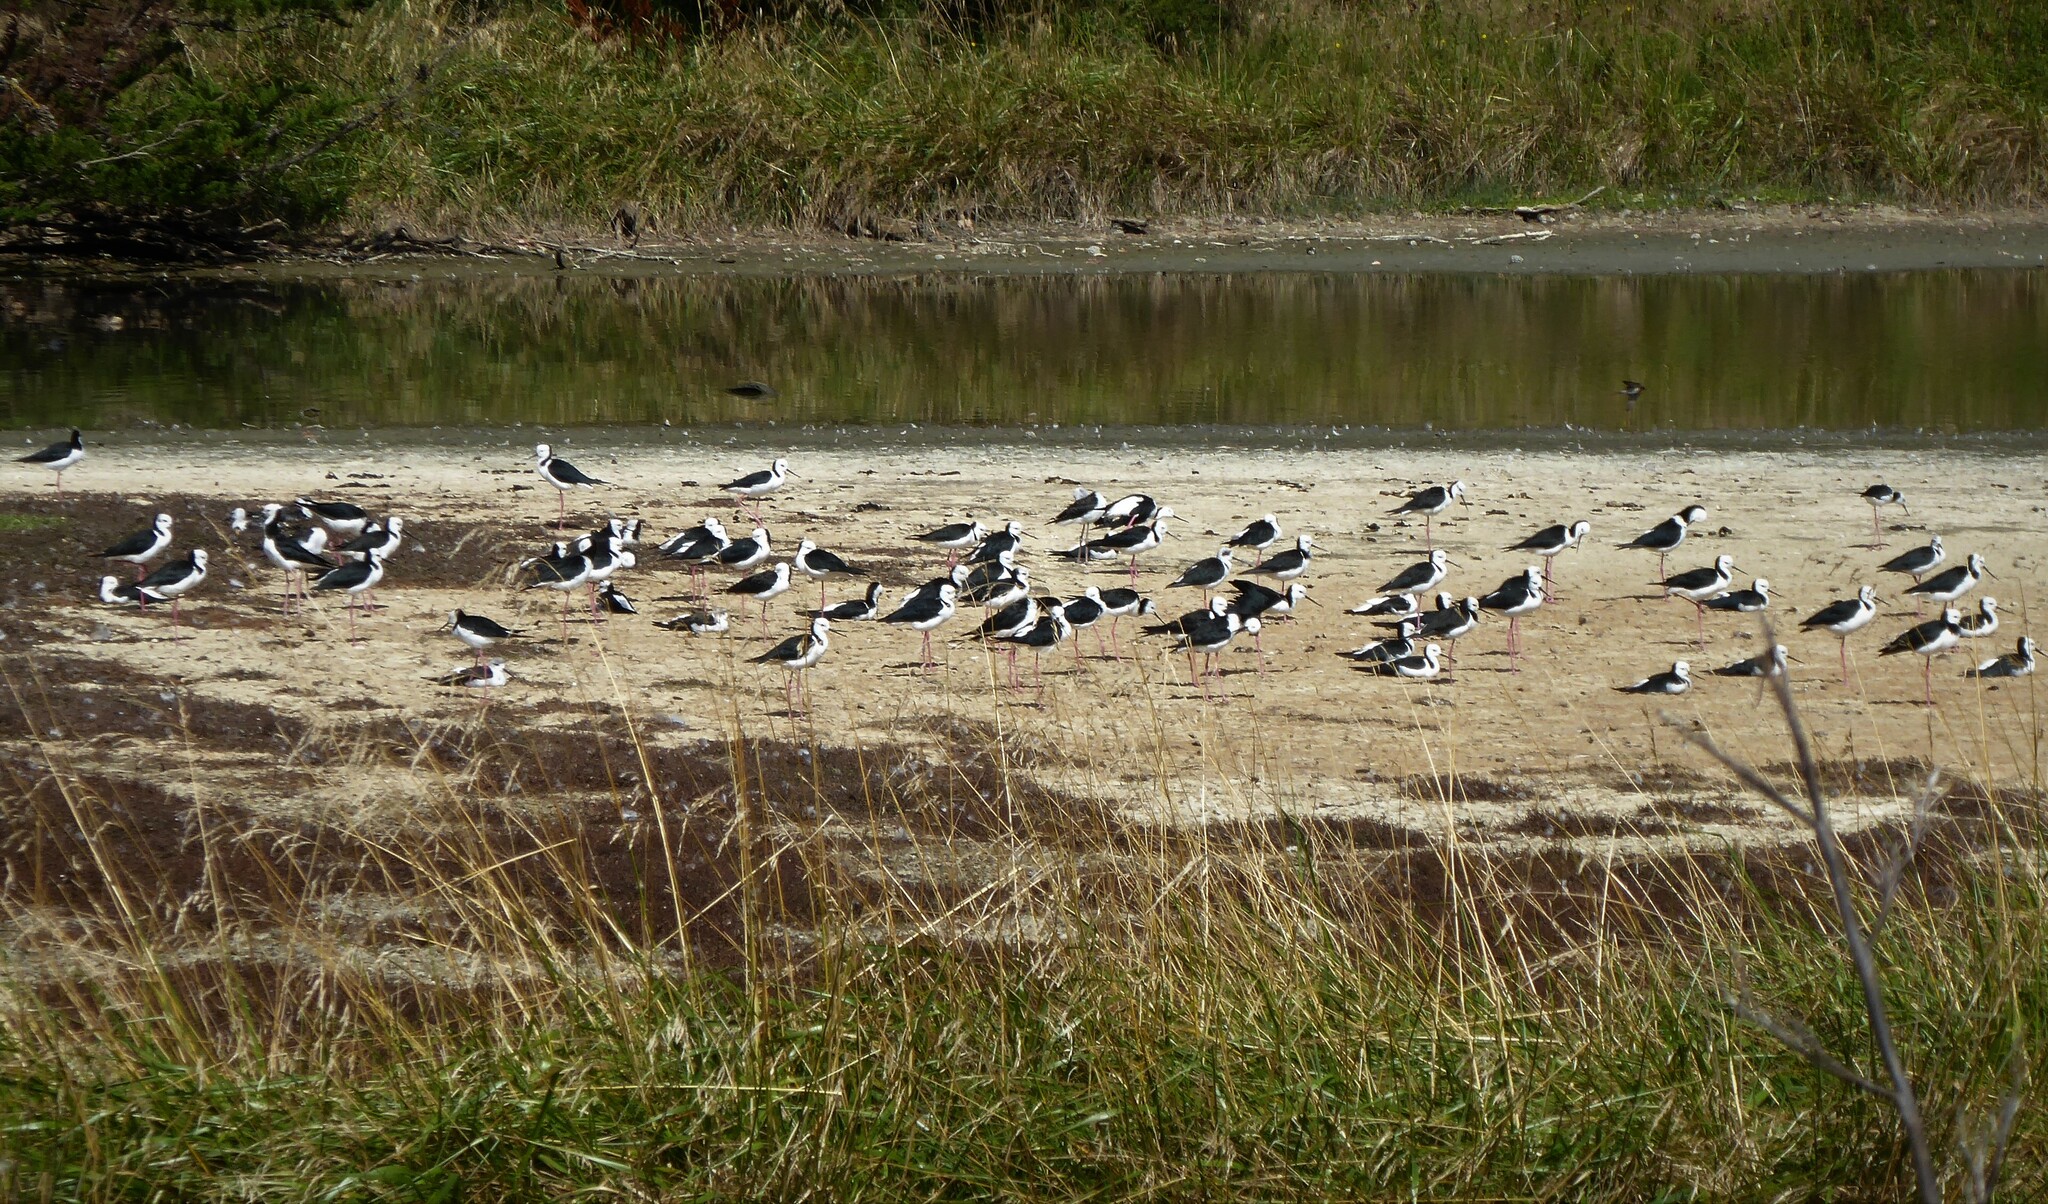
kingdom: Animalia
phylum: Chordata
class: Aves
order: Charadriiformes
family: Recurvirostridae
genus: Himantopus
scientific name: Himantopus leucocephalus
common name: White-headed stilt
